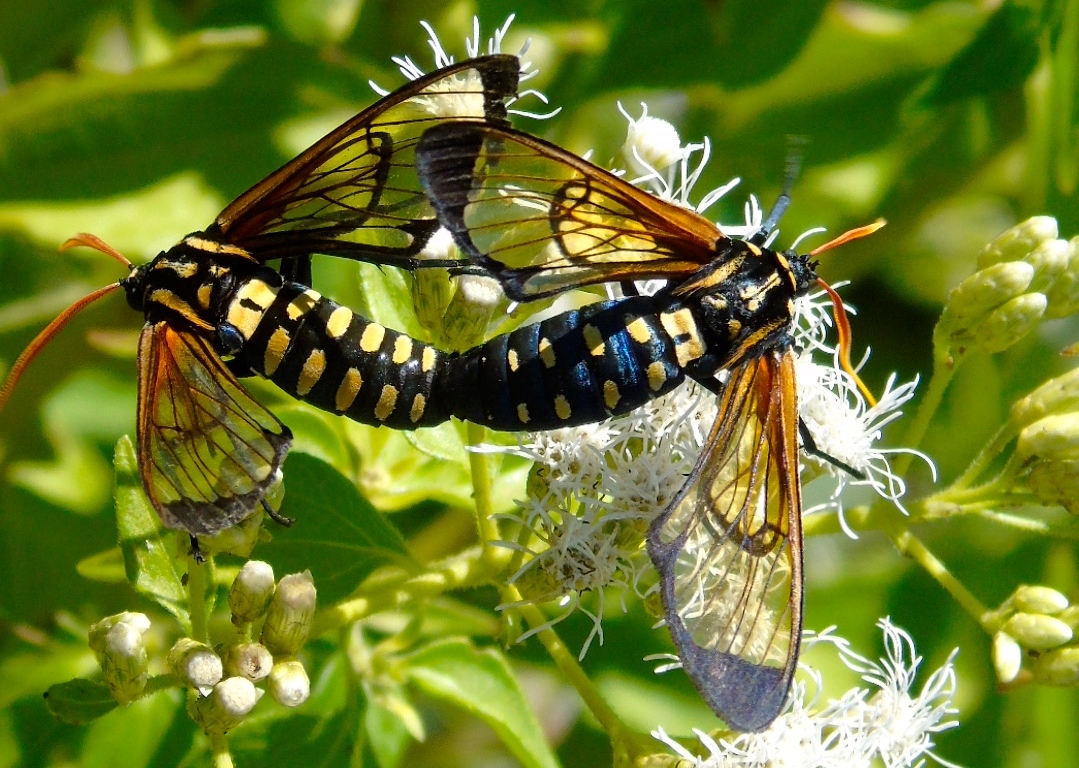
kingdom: Animalia
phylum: Arthropoda
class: Insecta
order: Lepidoptera
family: Erebidae
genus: Isanthrene
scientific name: Isanthrene perboscii
